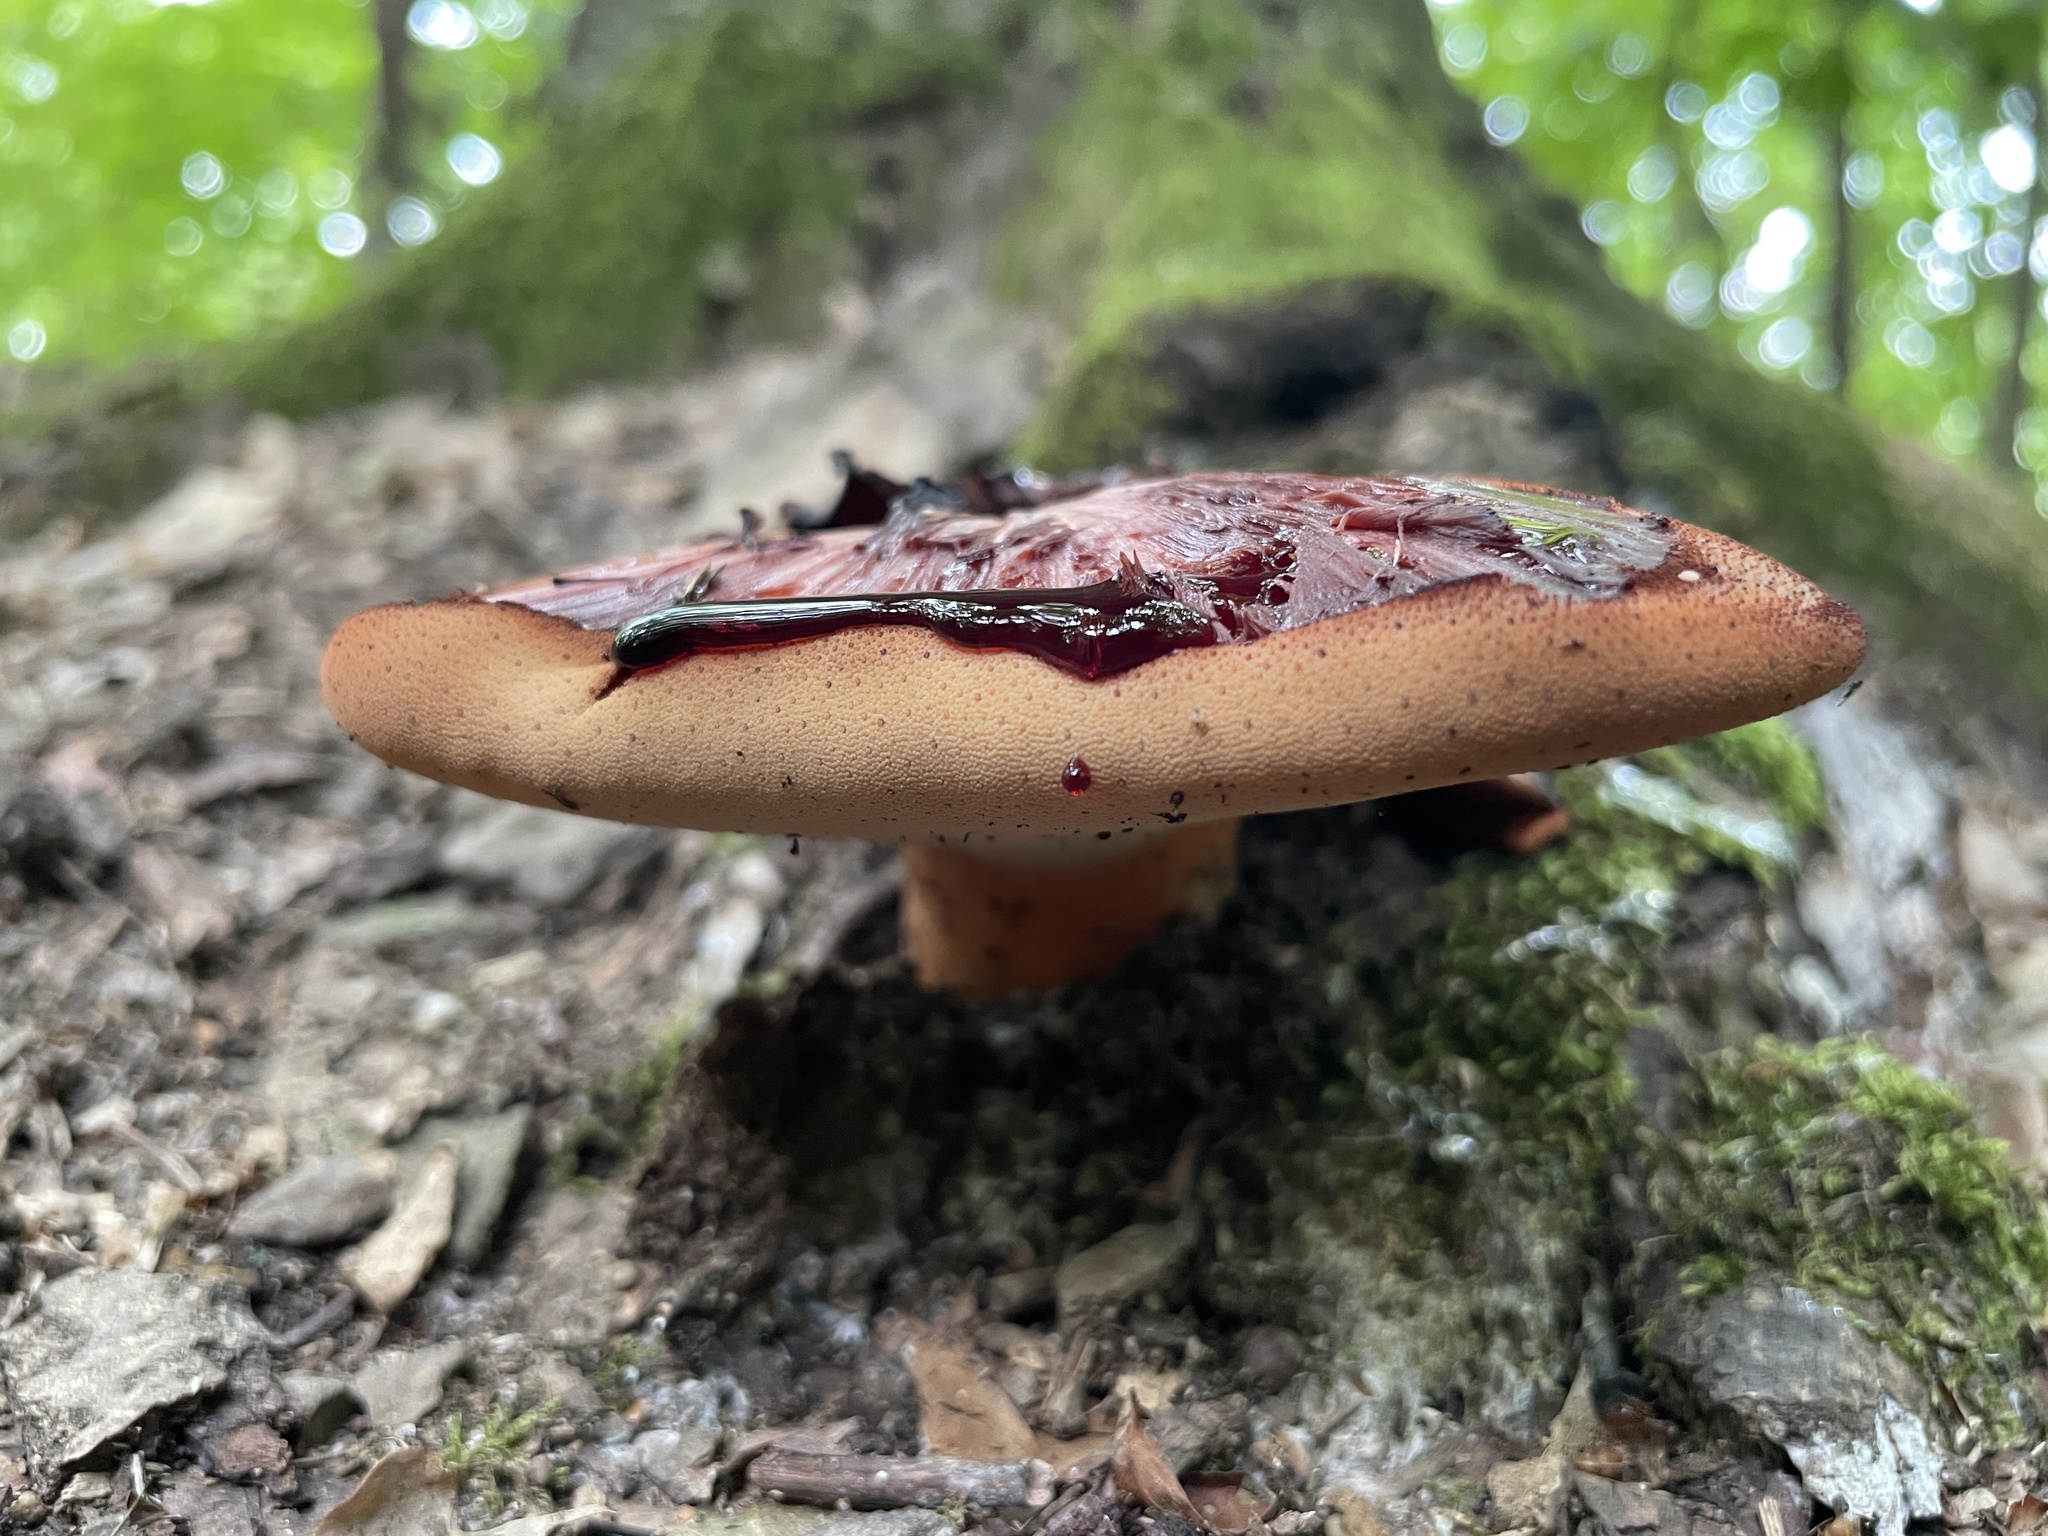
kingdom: Fungi
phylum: Basidiomycota
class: Agaricomycetes
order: Agaricales
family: Fistulinaceae
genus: Fistulina
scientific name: Fistulina hepatica
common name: Beef-steak fungus
